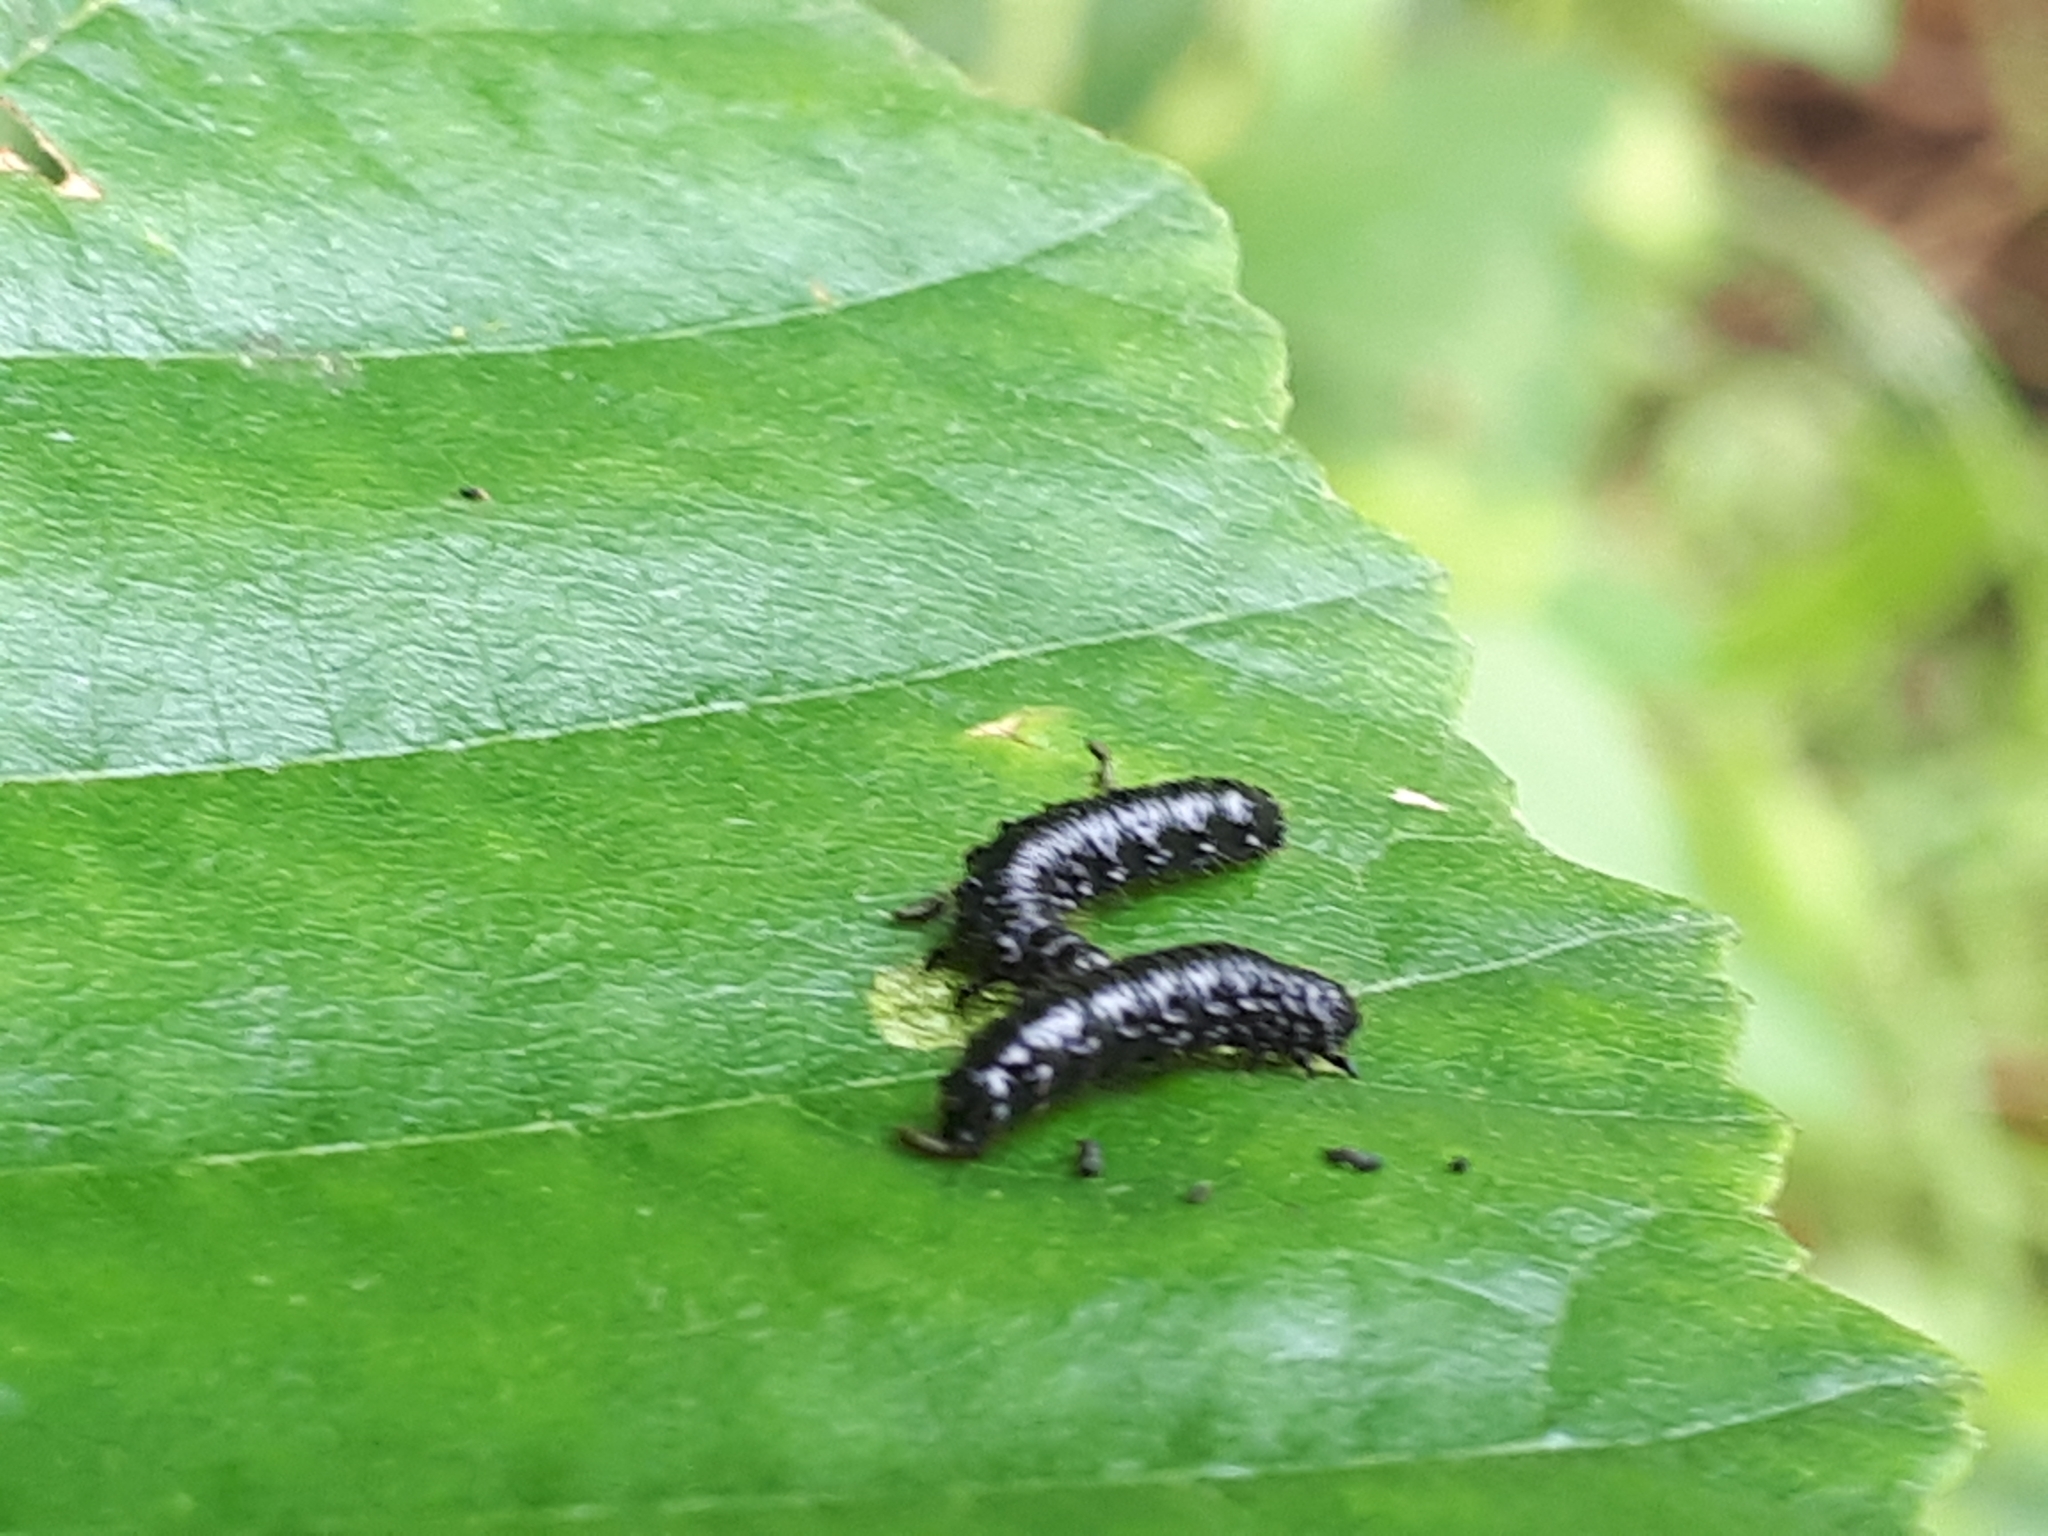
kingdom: Animalia
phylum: Arthropoda
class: Insecta
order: Coleoptera
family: Chrysomelidae
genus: Agelastica
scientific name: Agelastica alni
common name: Alder leaf beetle
